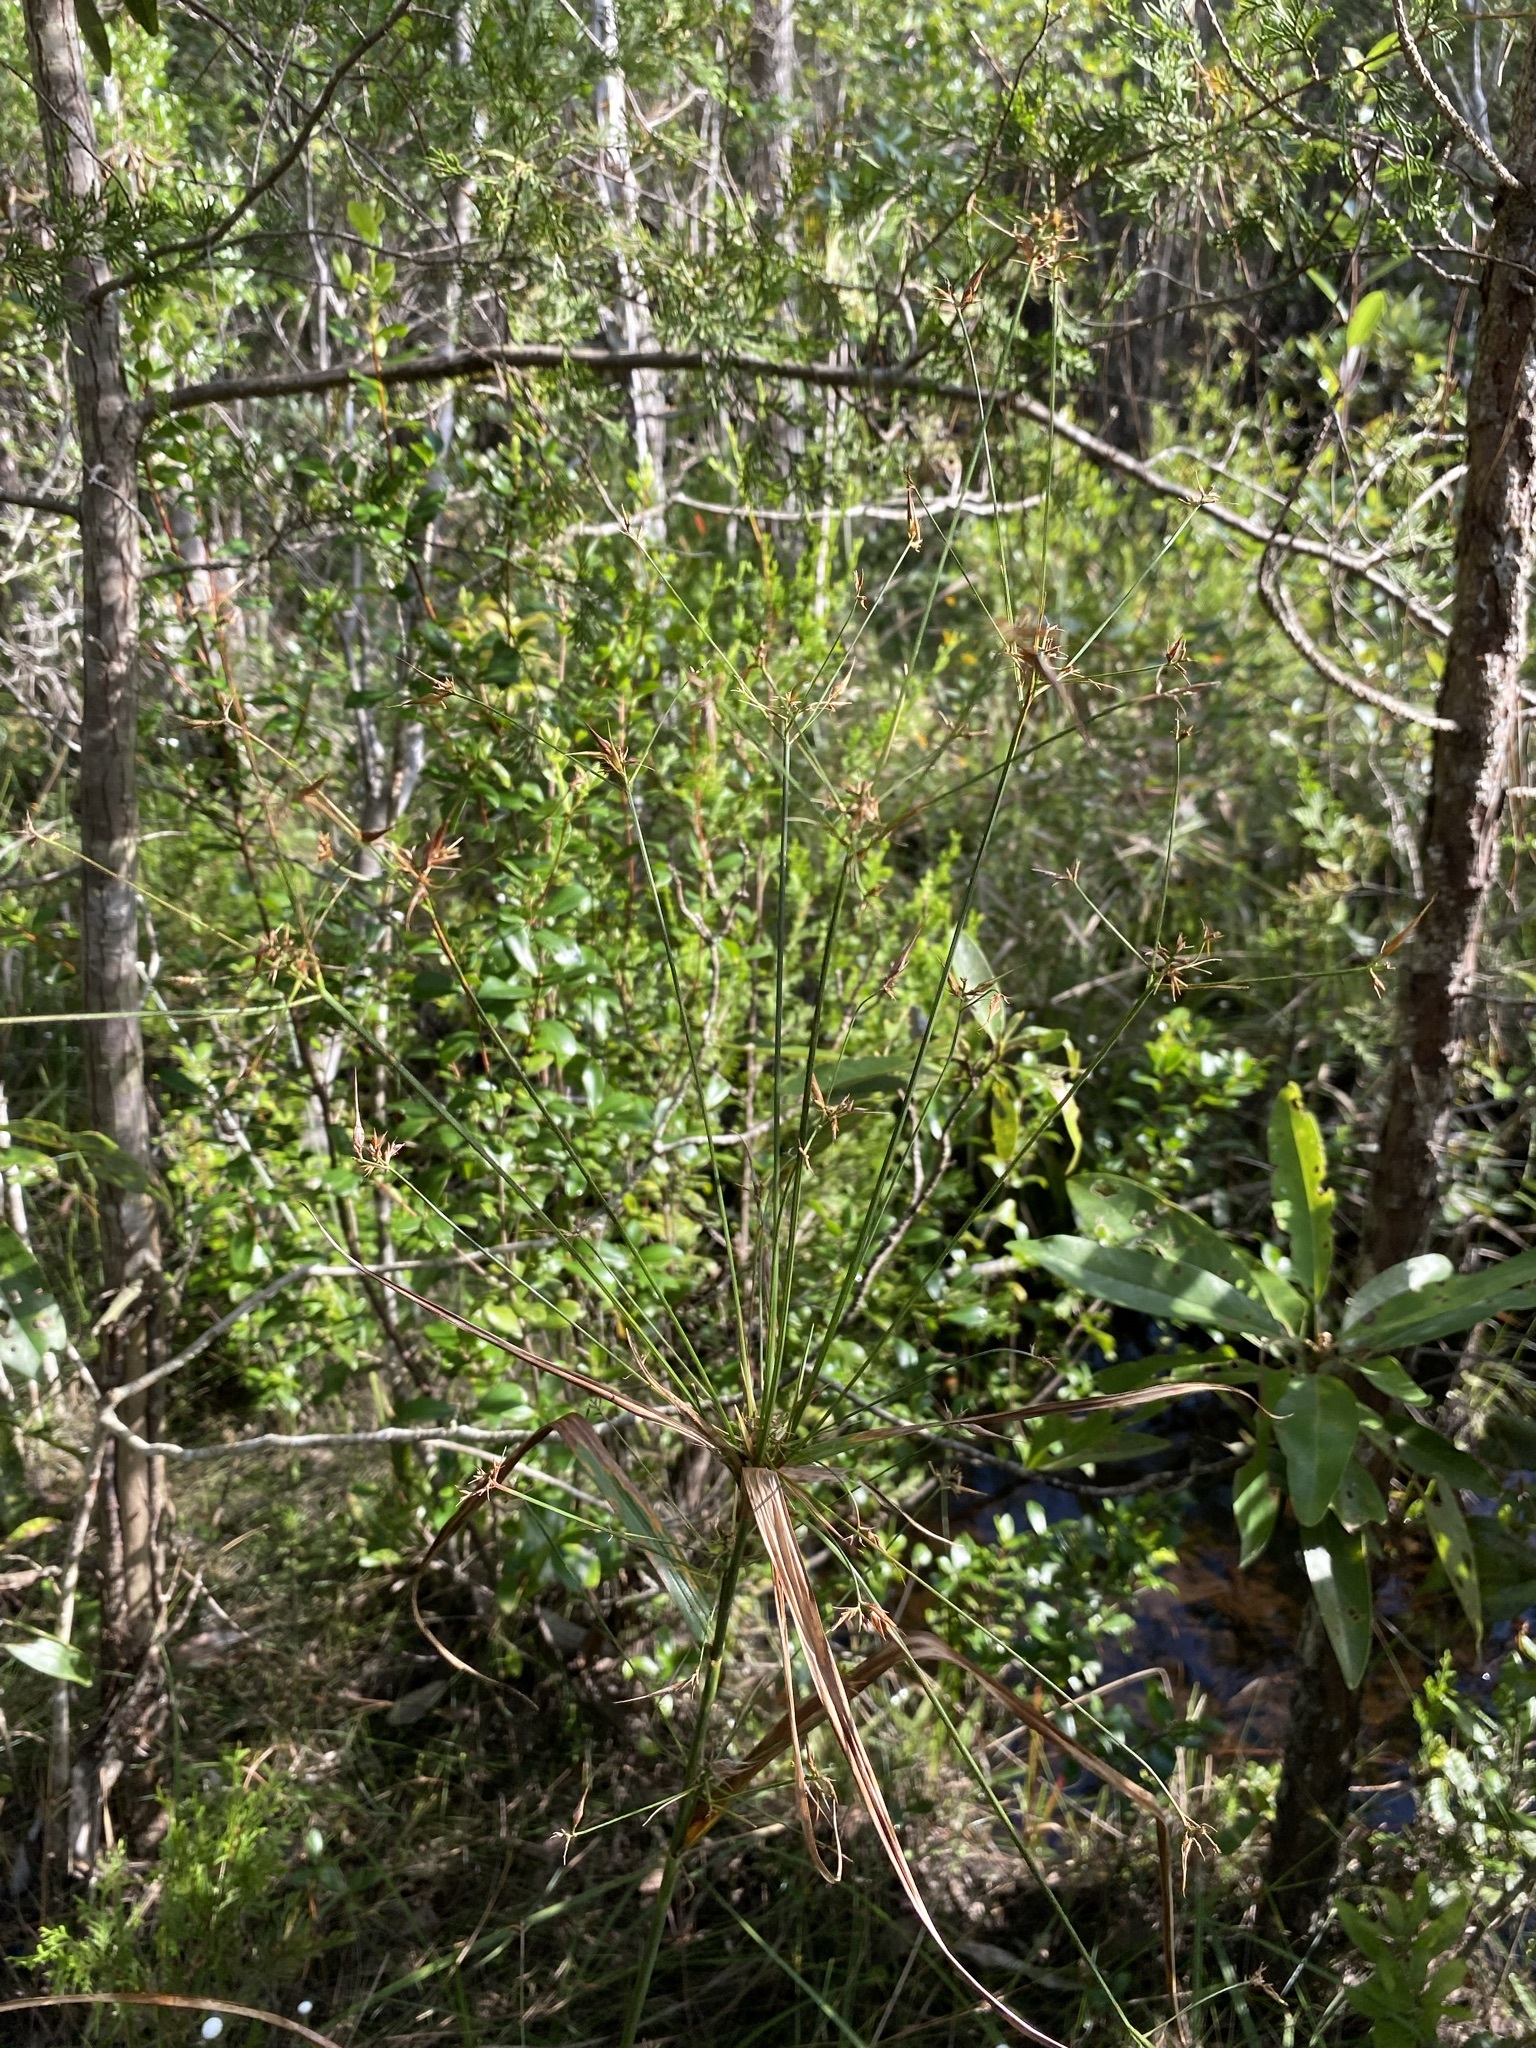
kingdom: Plantae
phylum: Tracheophyta
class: Liliopsida
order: Poales
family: Cyperaceae
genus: Rhynchospora
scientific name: Rhynchospora corniculata
